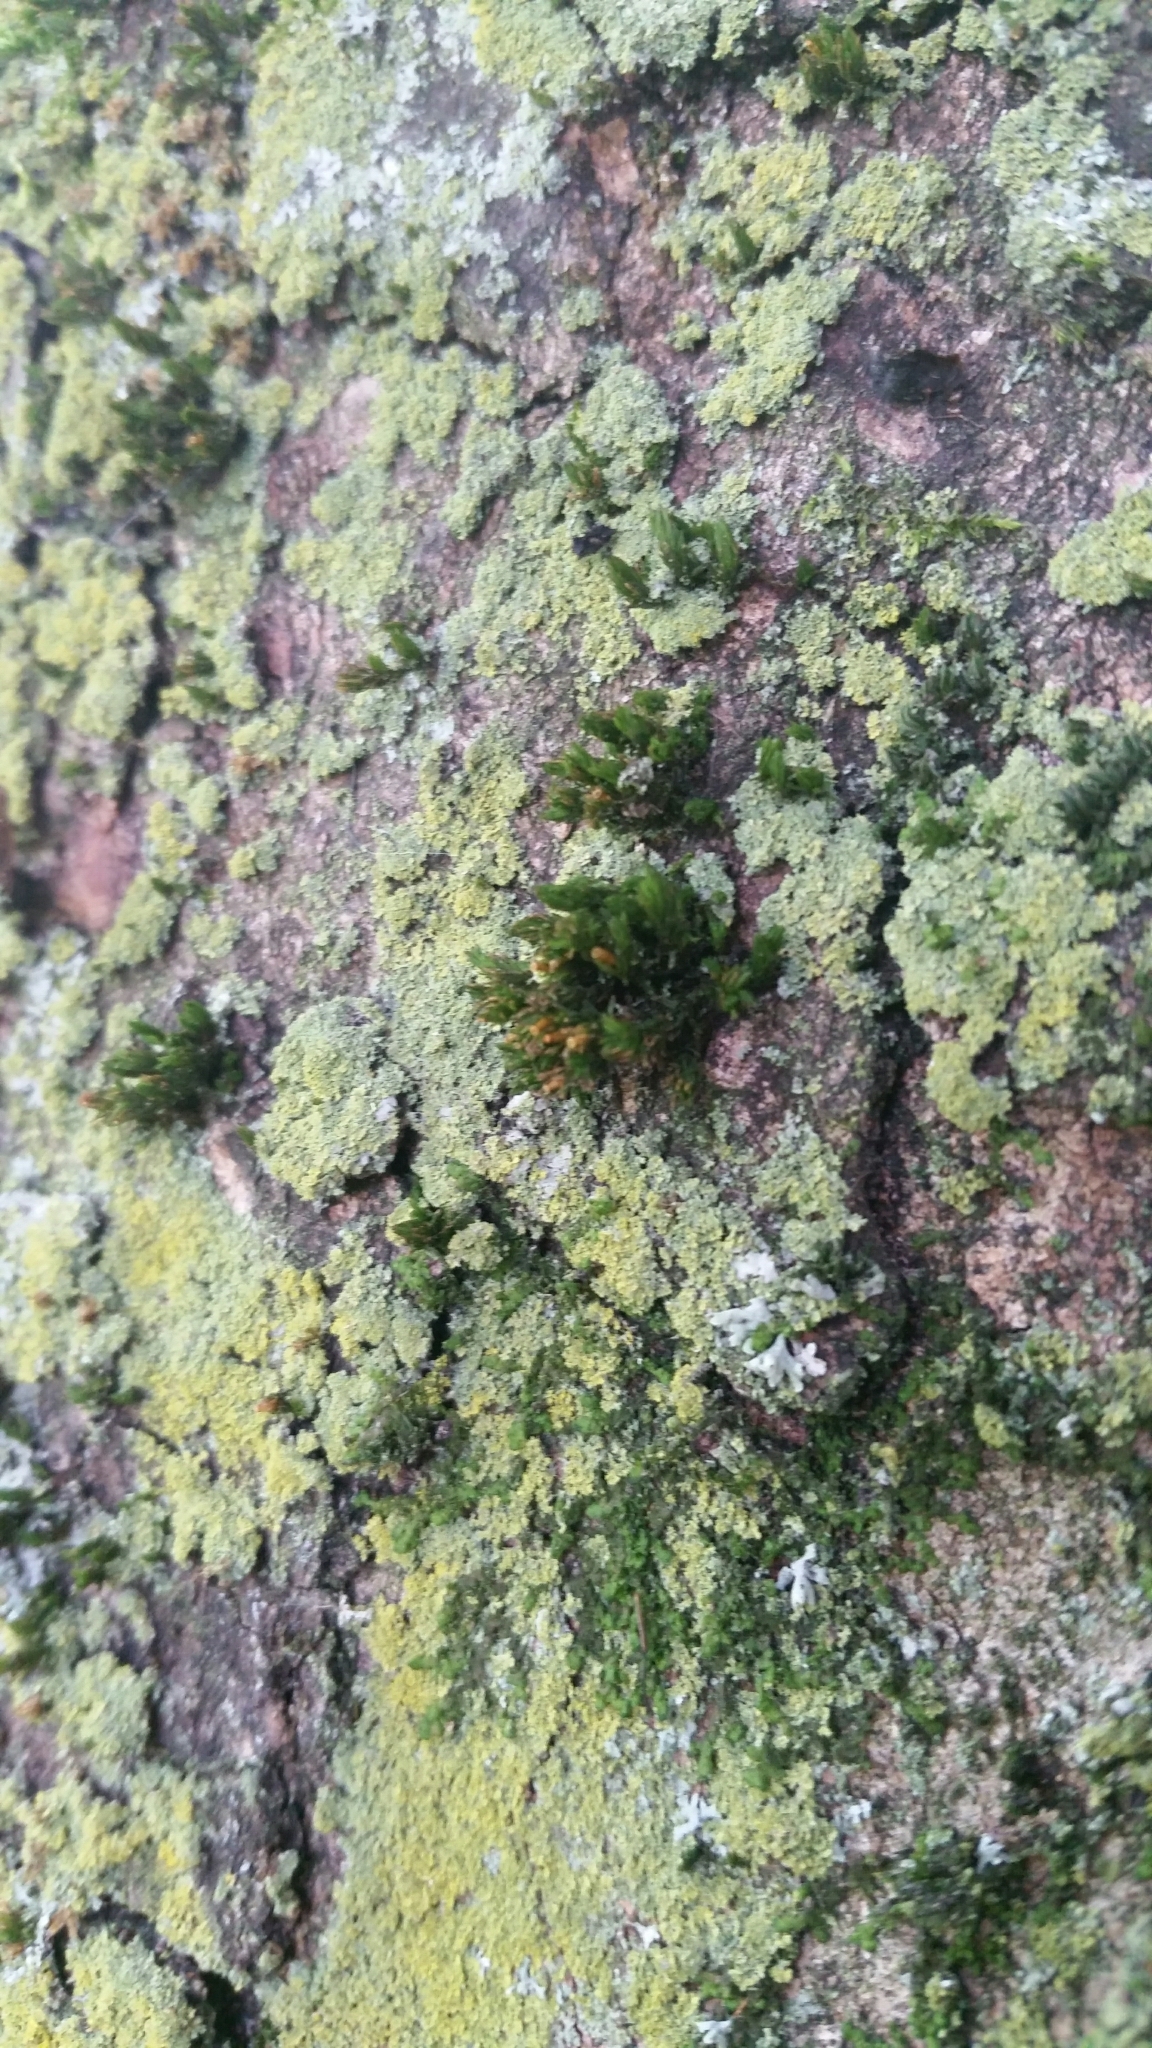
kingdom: Plantae
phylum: Bryophyta
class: Bryopsida
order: Orthotrichales
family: Orthotrichaceae
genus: Lewinskya
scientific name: Lewinskya affinis
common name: Wood bristle-moss
